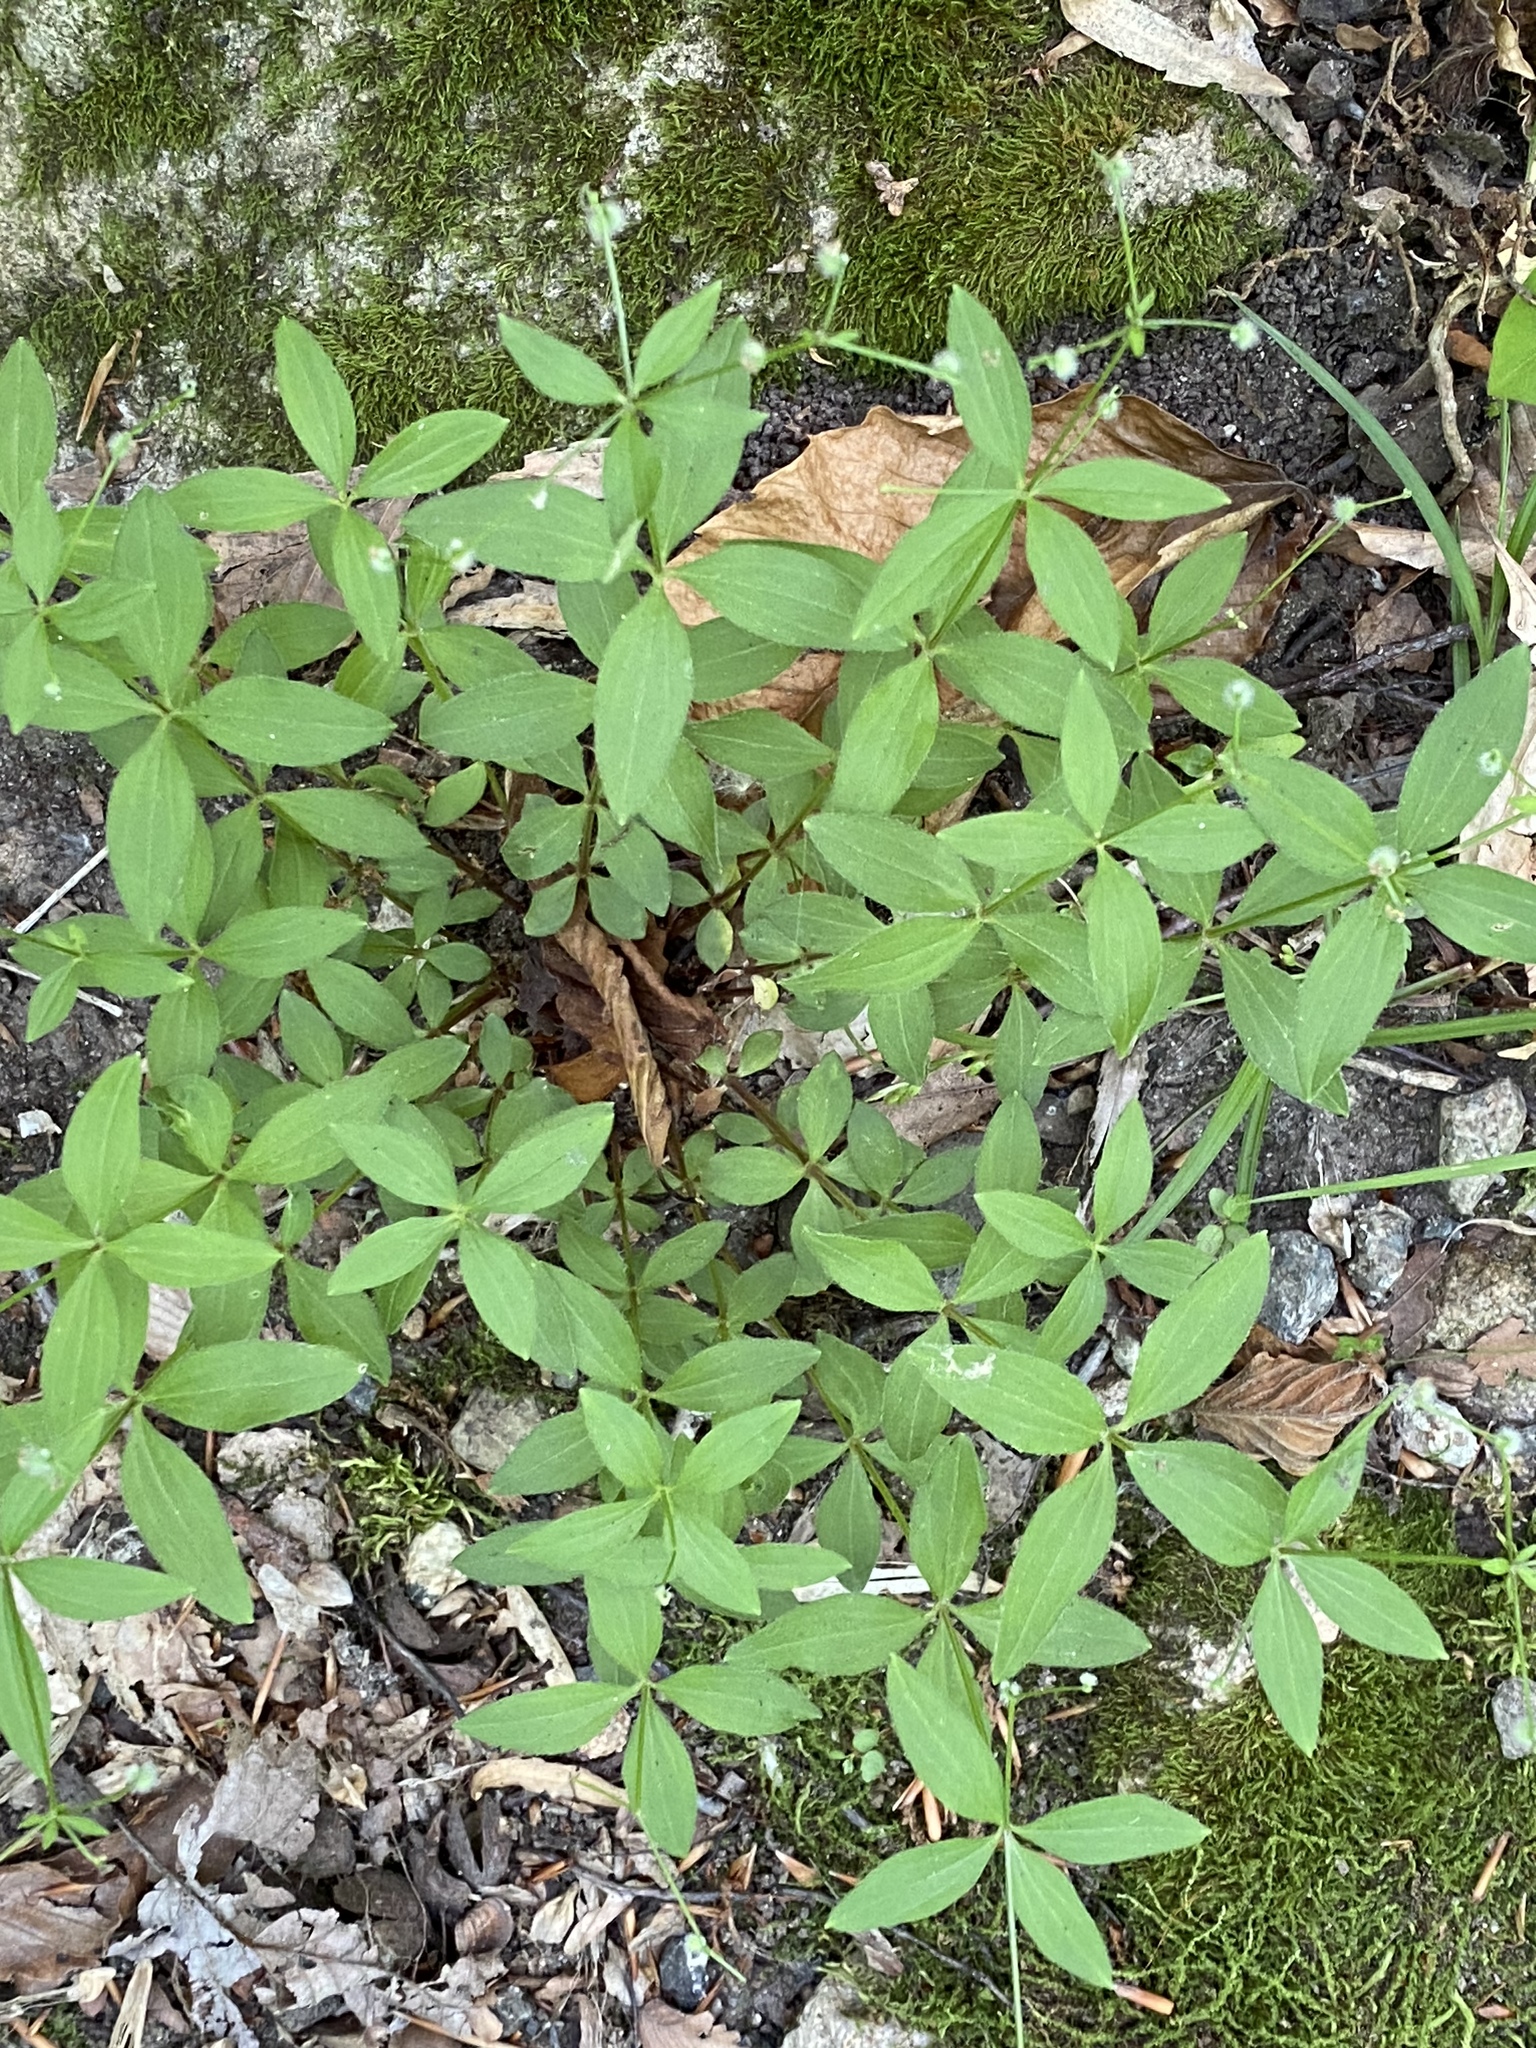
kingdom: Plantae
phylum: Tracheophyta
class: Magnoliopsida
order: Gentianales
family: Rubiaceae
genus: Galium
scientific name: Galium circaezans
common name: Forest bedstraw
